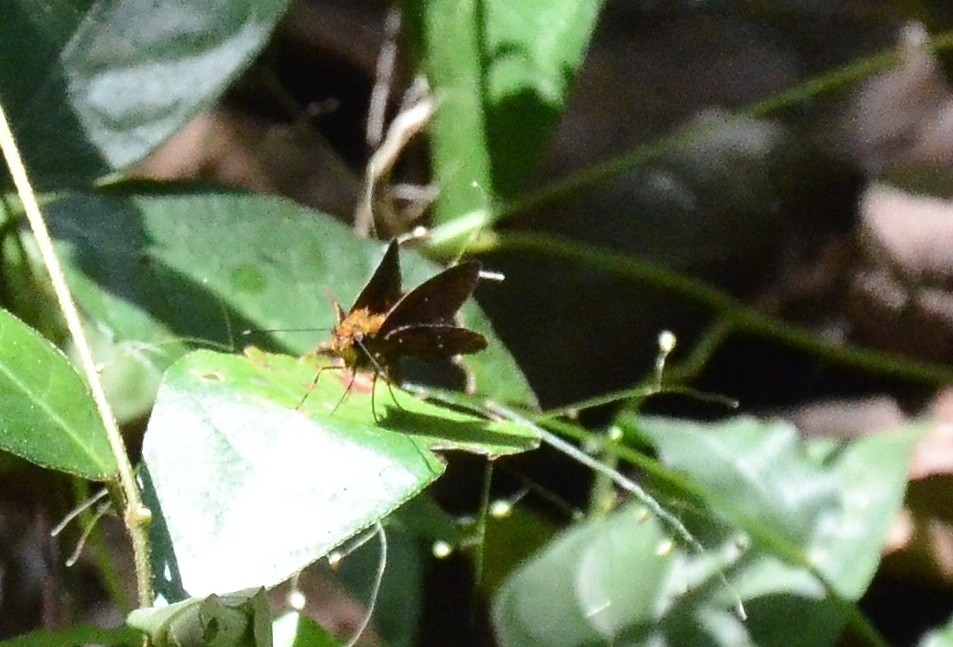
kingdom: Animalia
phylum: Arthropoda
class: Insecta
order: Lepidoptera
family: Hesperiidae
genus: Iambrix
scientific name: Iambrix salsala
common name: Chestnut bob
